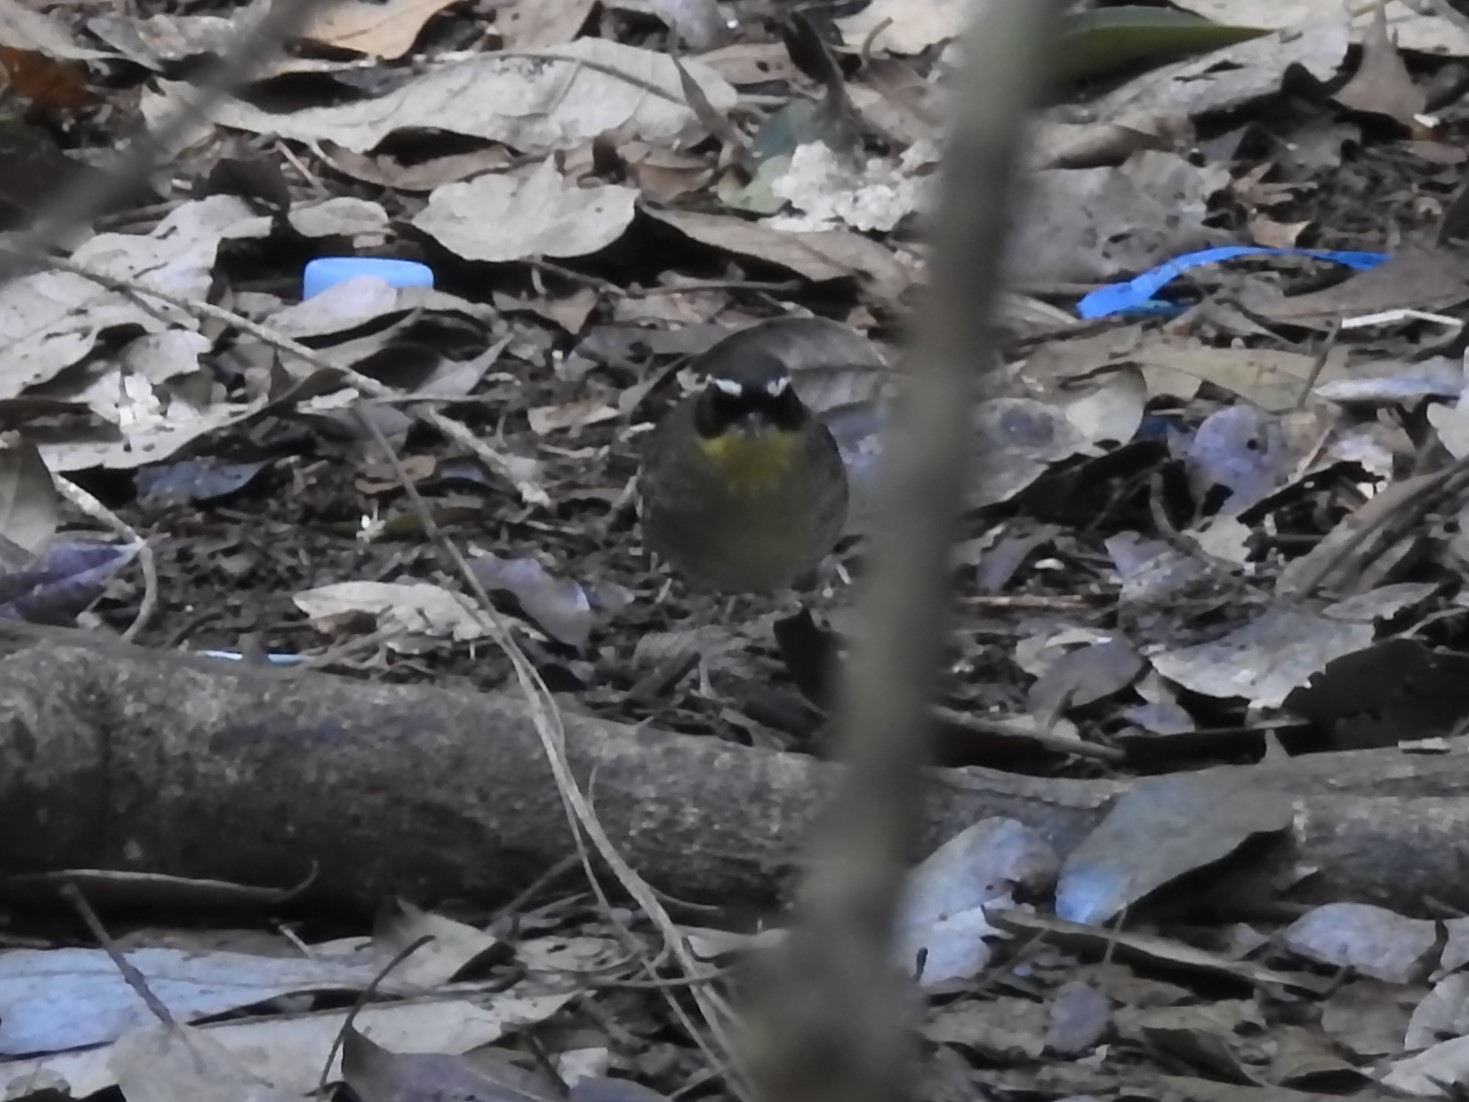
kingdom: Animalia
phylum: Chordata
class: Aves
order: Passeriformes
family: Acanthizidae
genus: Sericornis
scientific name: Sericornis citreogularis
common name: Yellow-throated scrubwren
